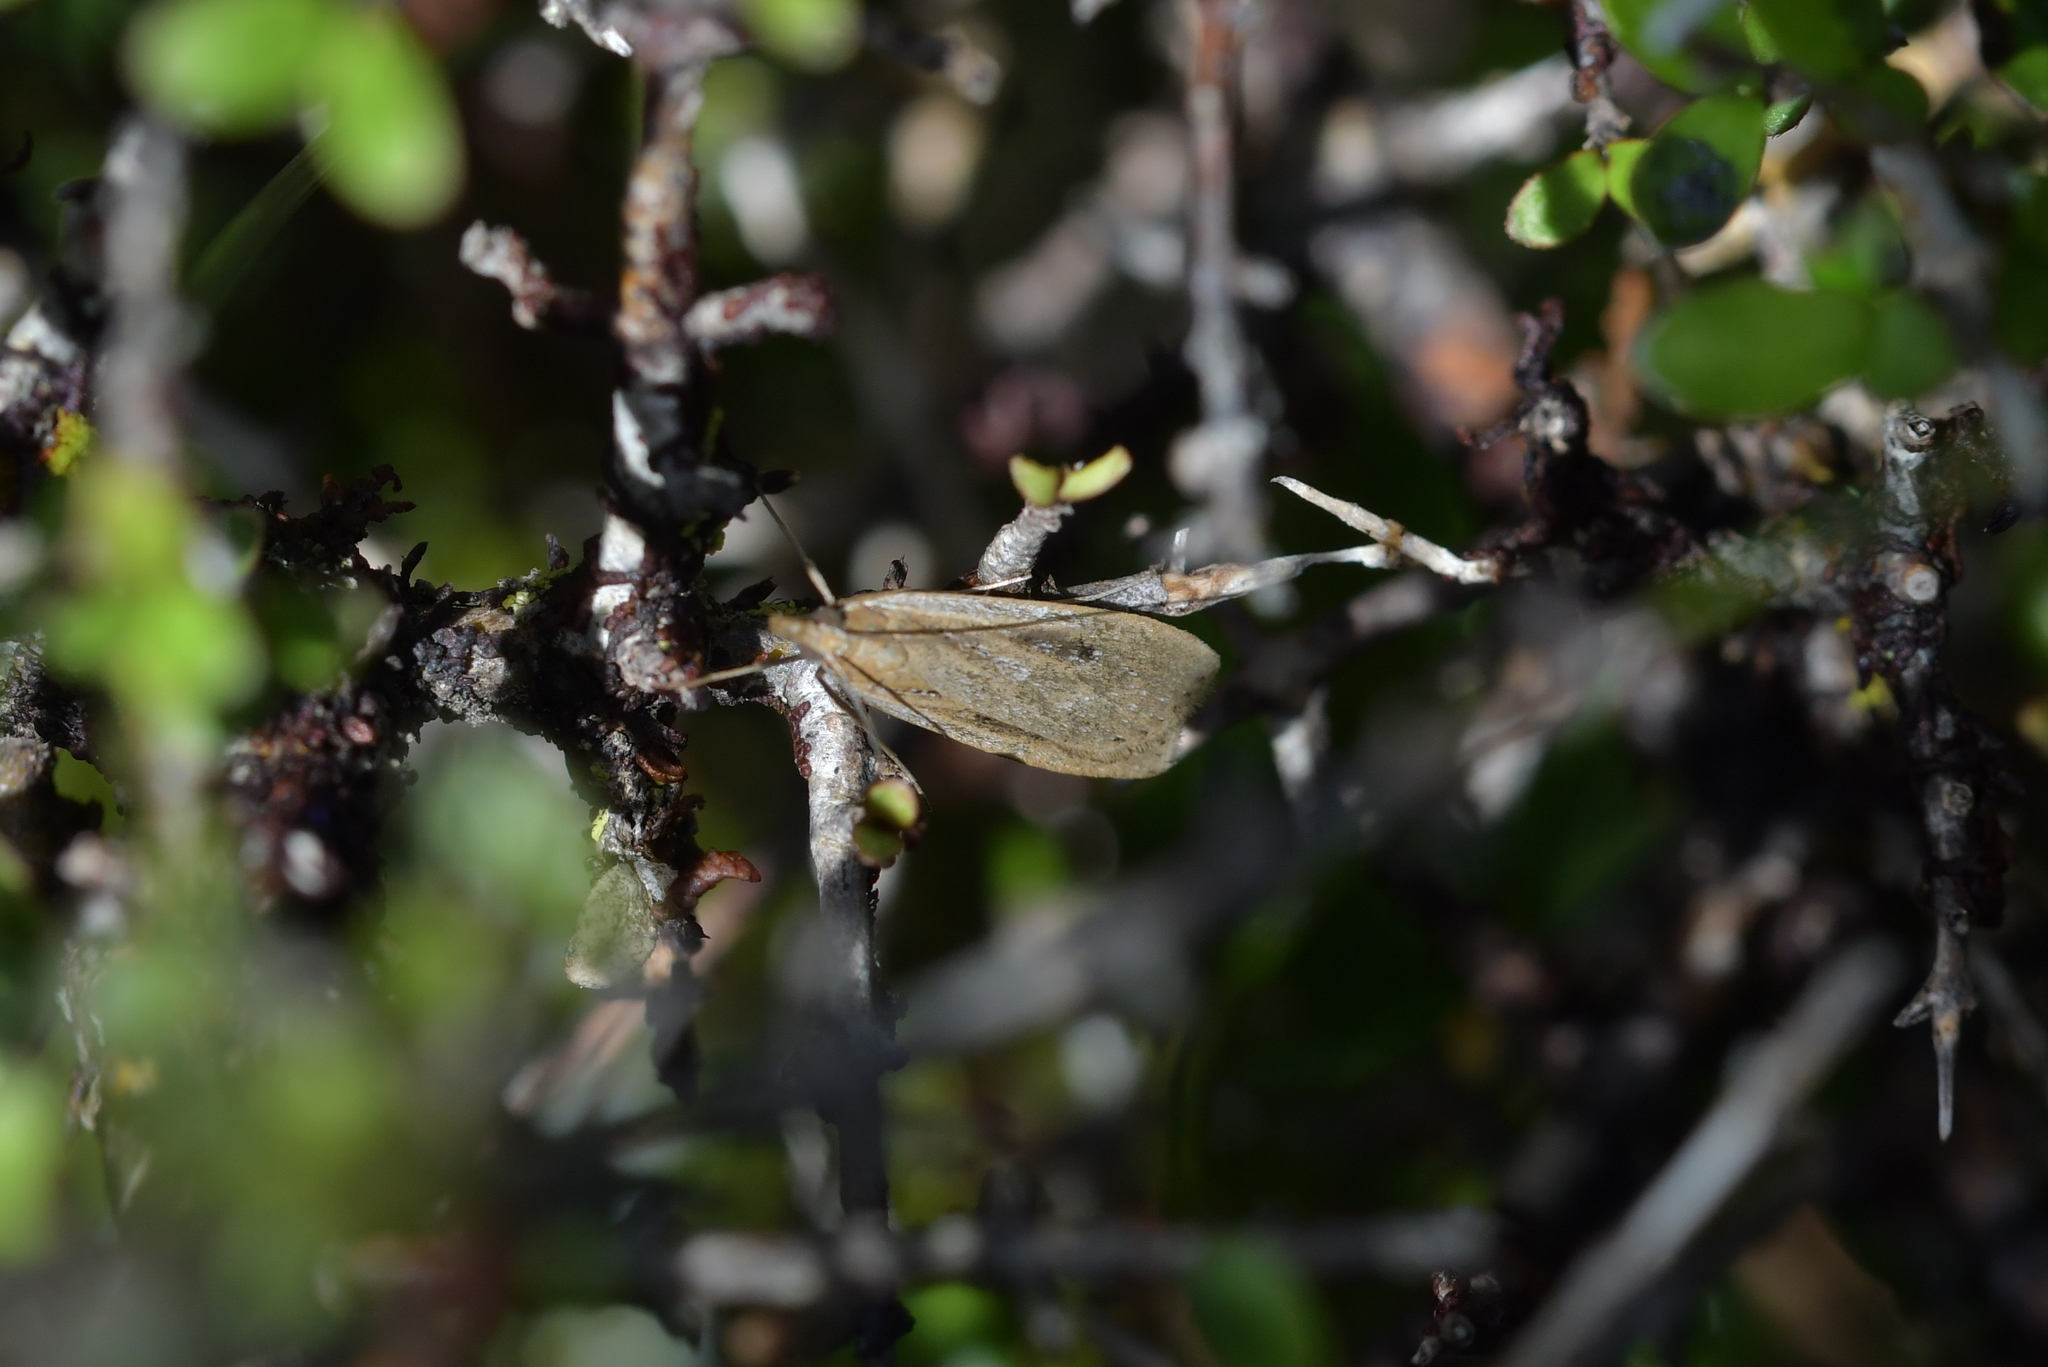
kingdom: Animalia
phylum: Arthropoda
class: Insecta
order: Lepidoptera
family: Crambidae
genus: Eudonia
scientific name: Eudonia sabulosella
